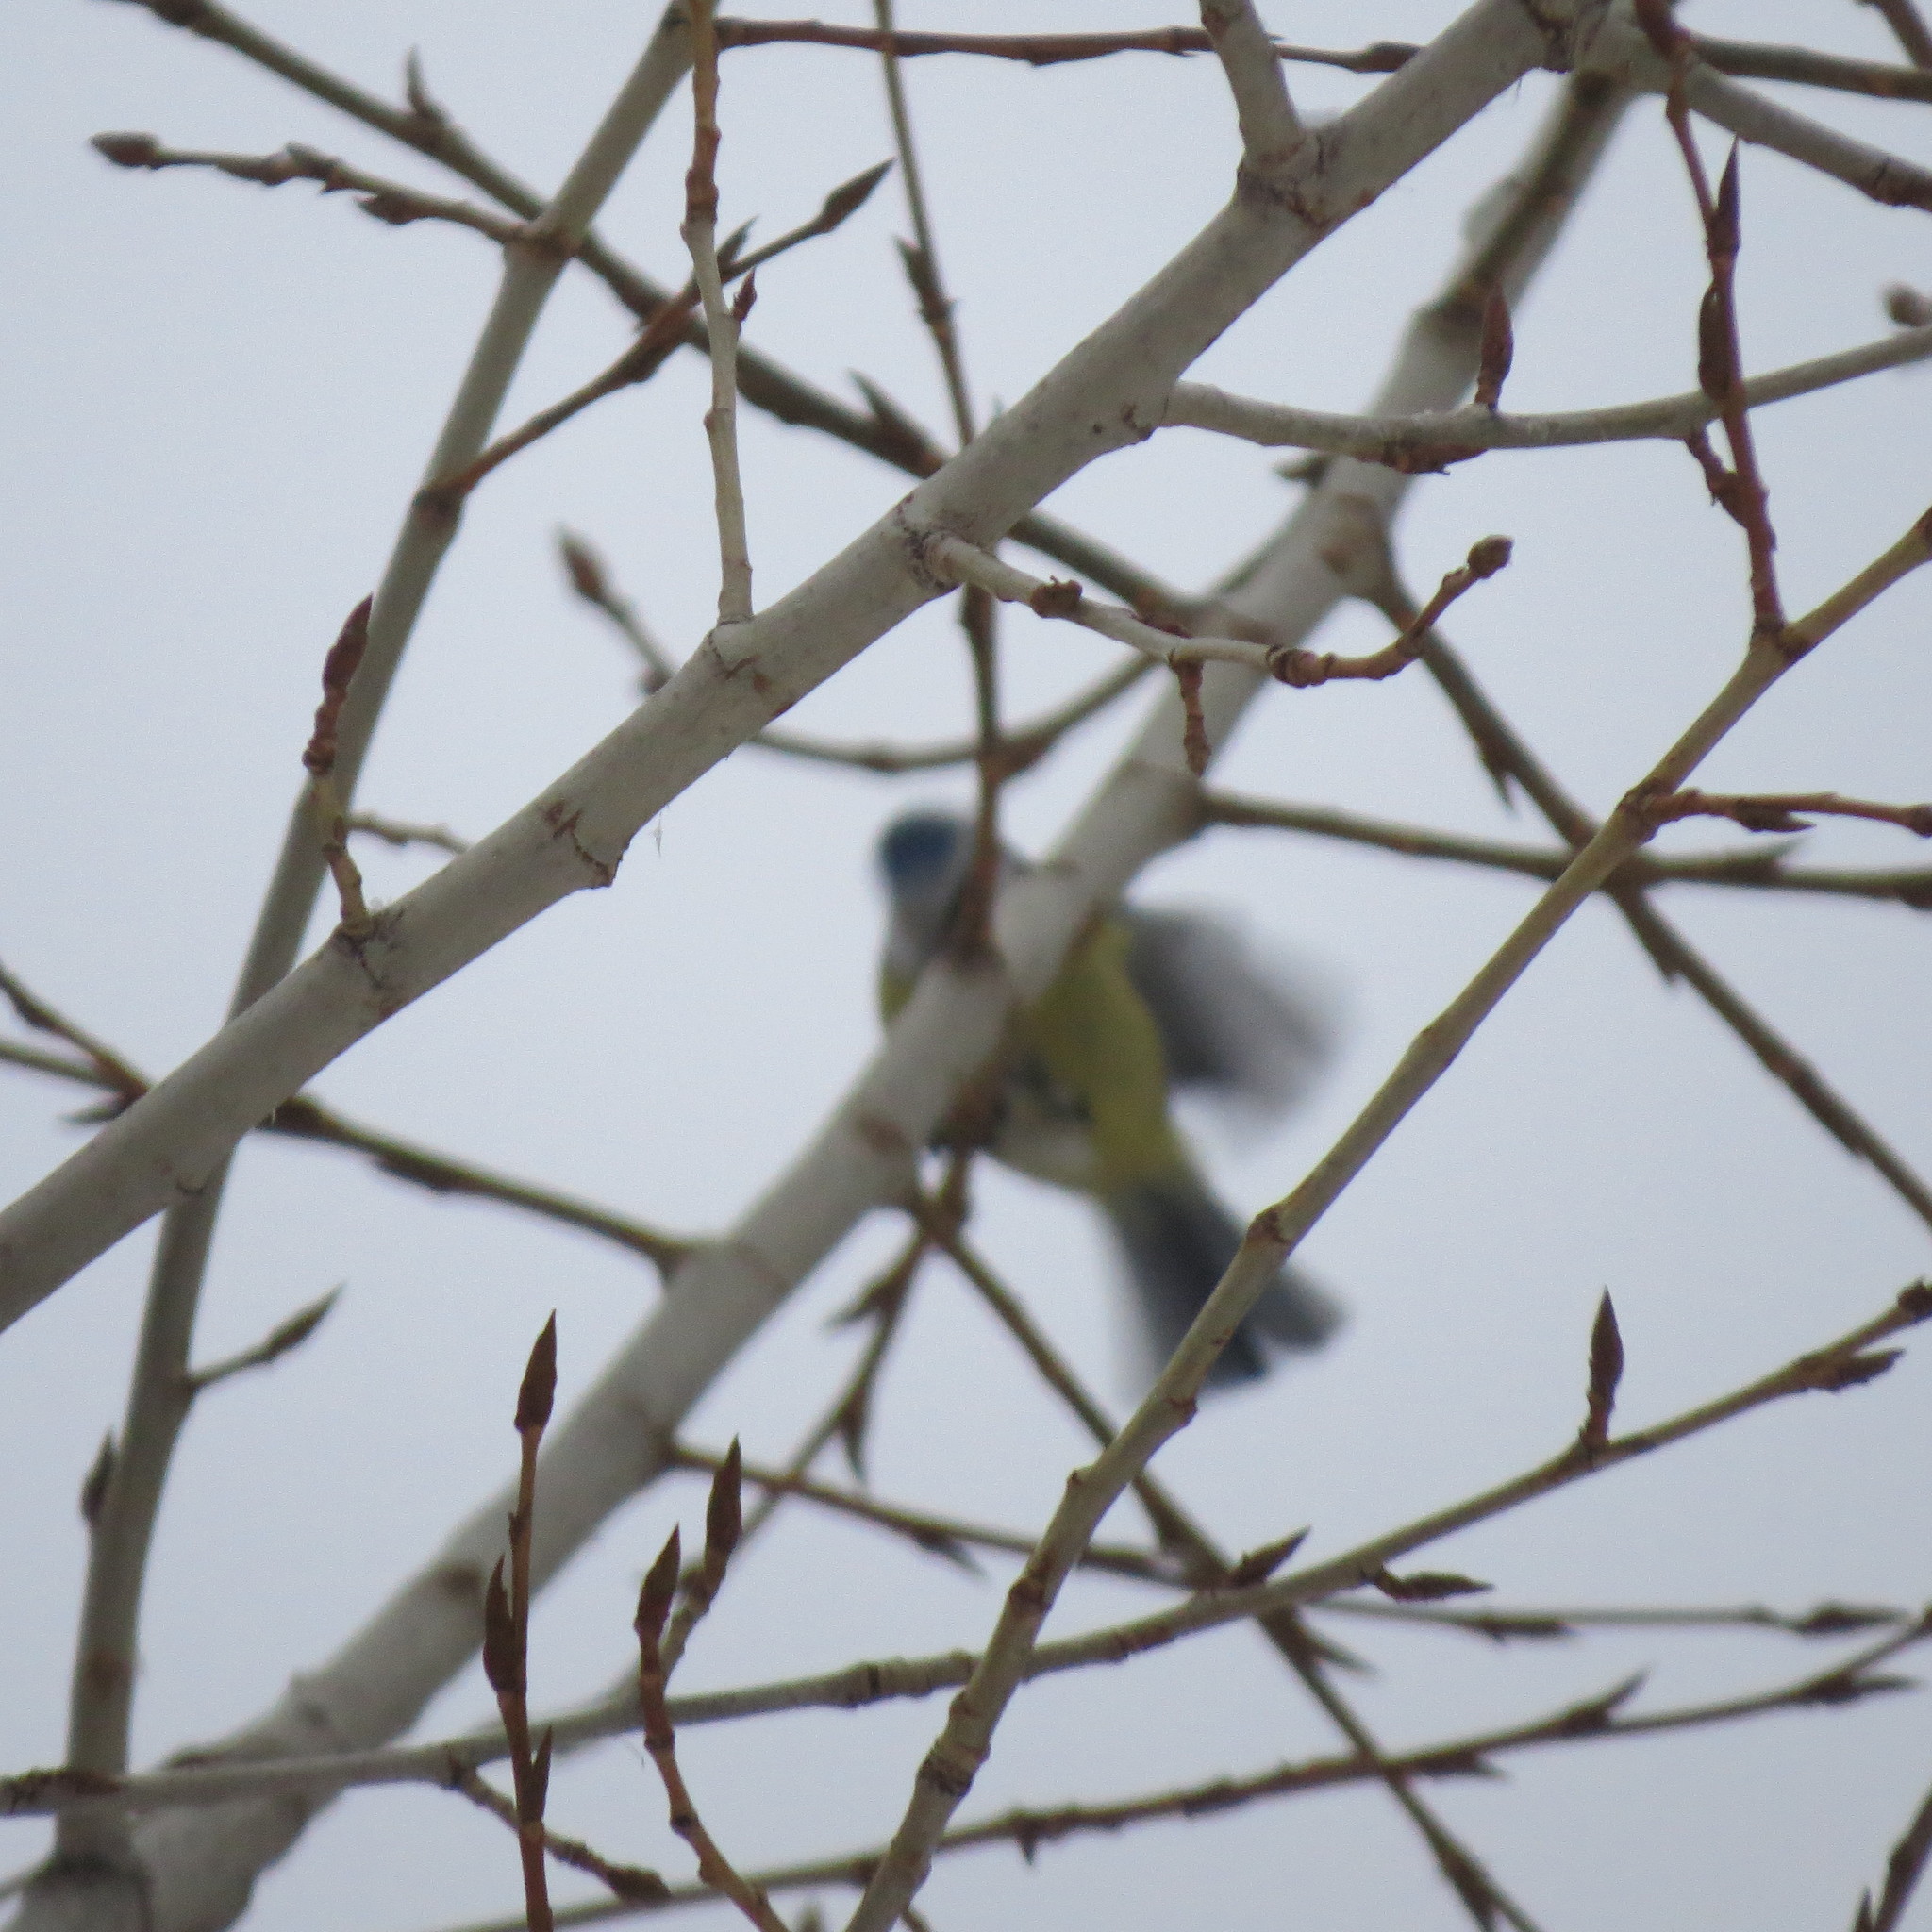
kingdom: Animalia
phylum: Chordata
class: Aves
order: Passeriformes
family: Paridae
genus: Cyanistes
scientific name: Cyanistes caeruleus
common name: Eurasian blue tit
